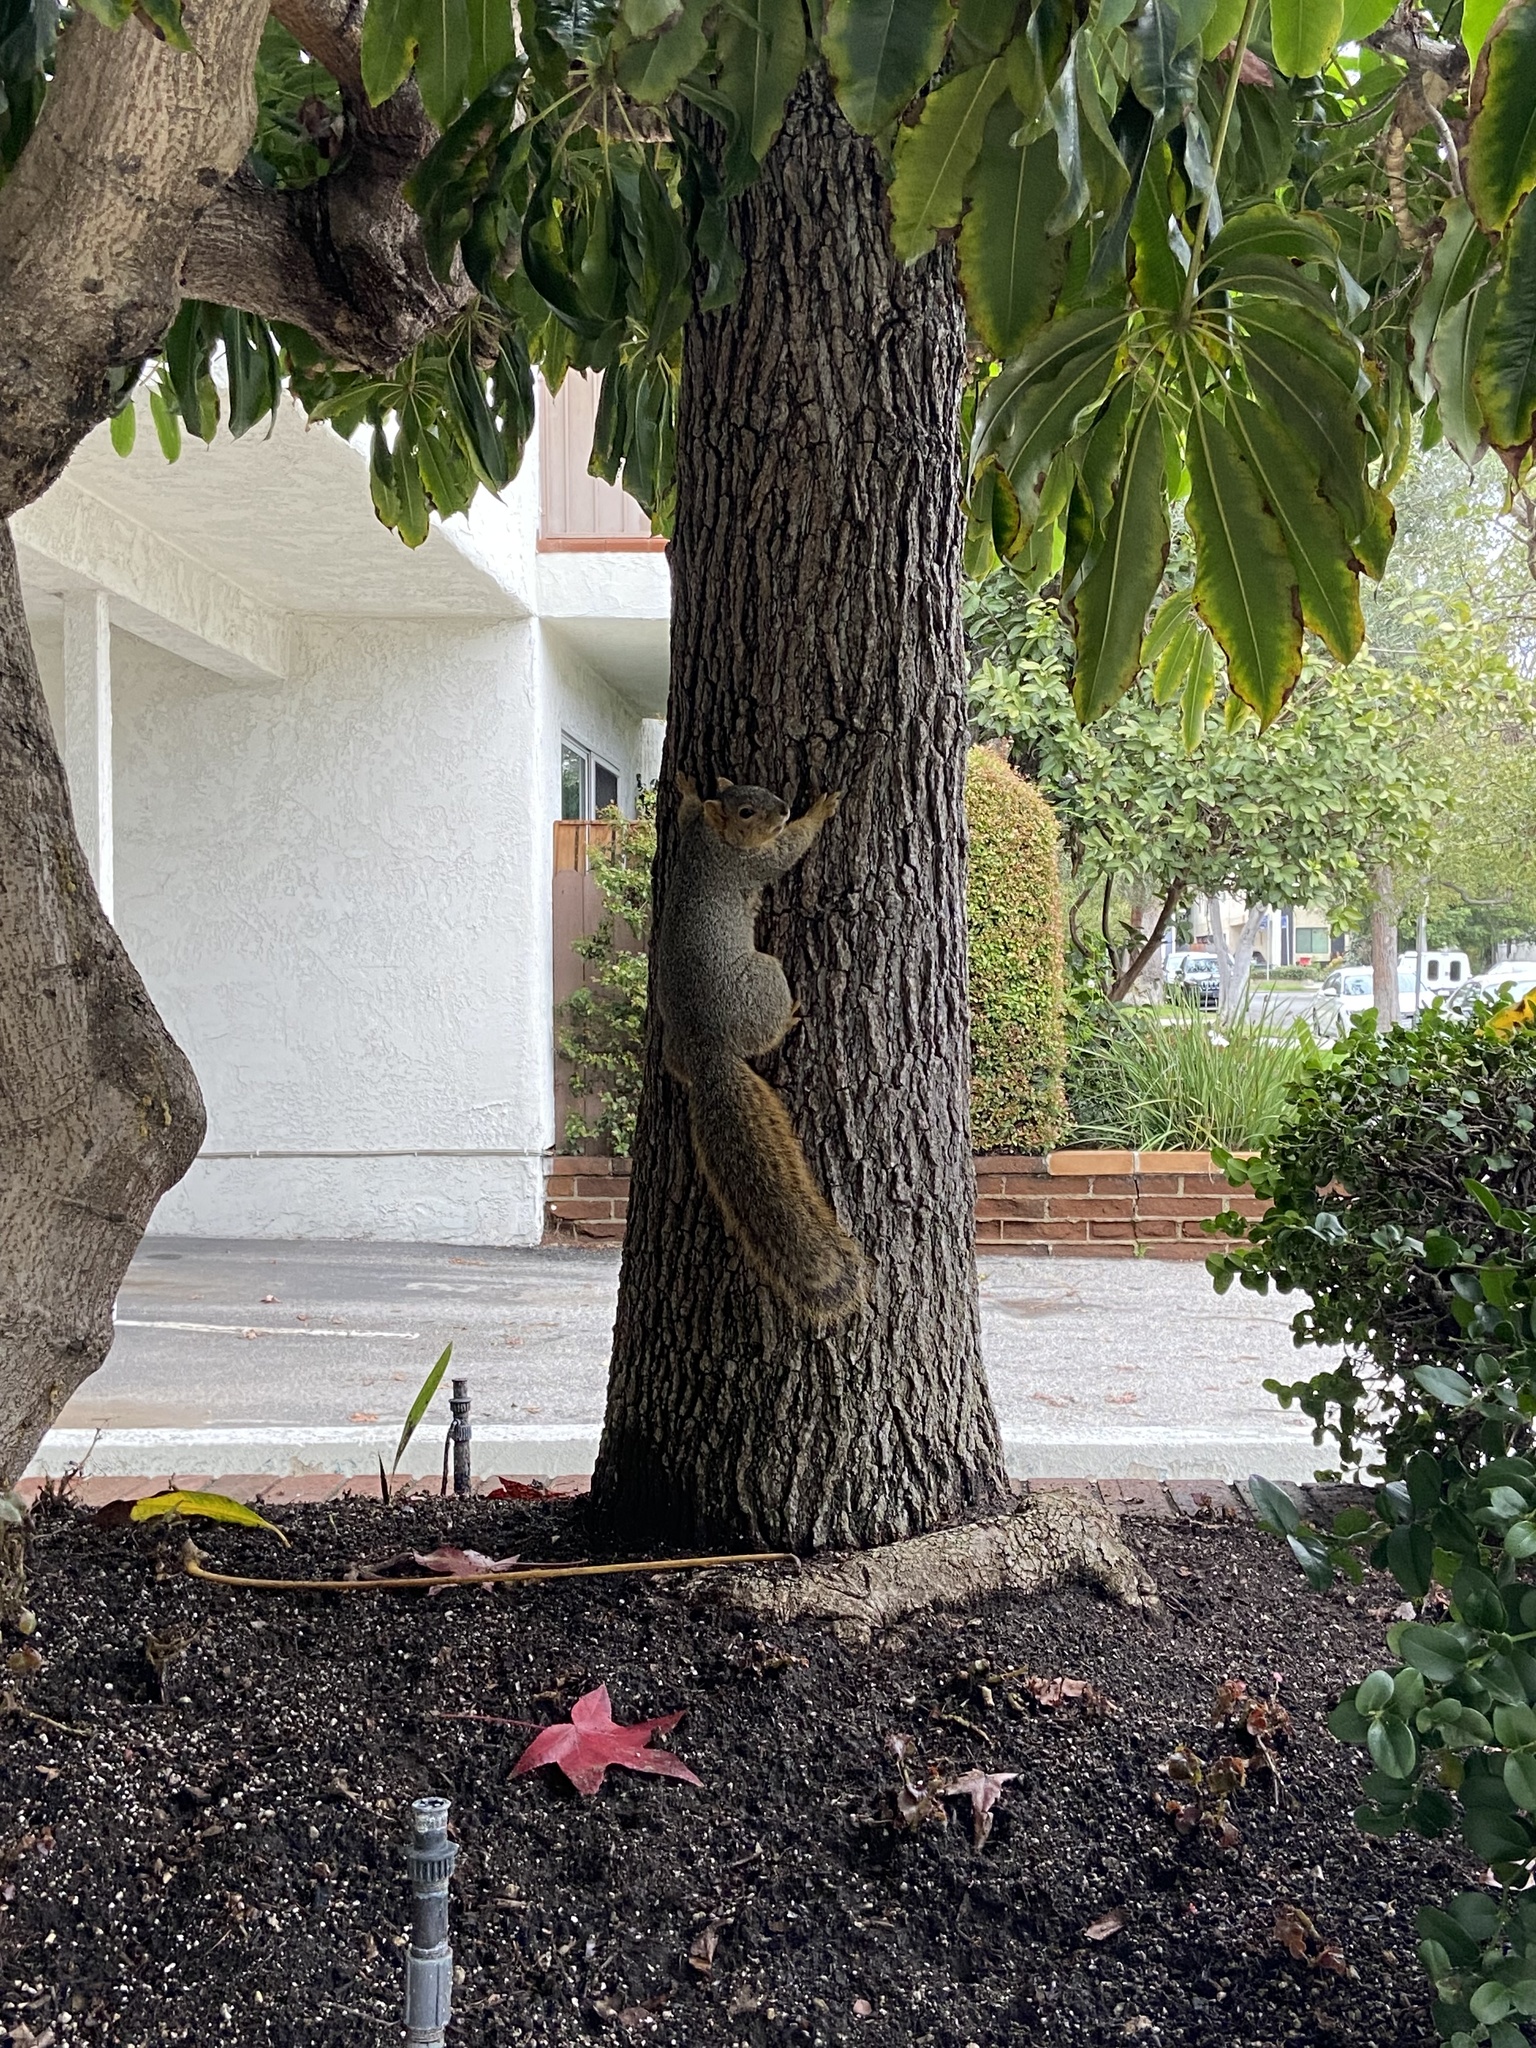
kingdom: Animalia
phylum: Chordata
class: Mammalia
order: Rodentia
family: Sciuridae
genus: Sciurus
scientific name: Sciurus niger
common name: Fox squirrel
